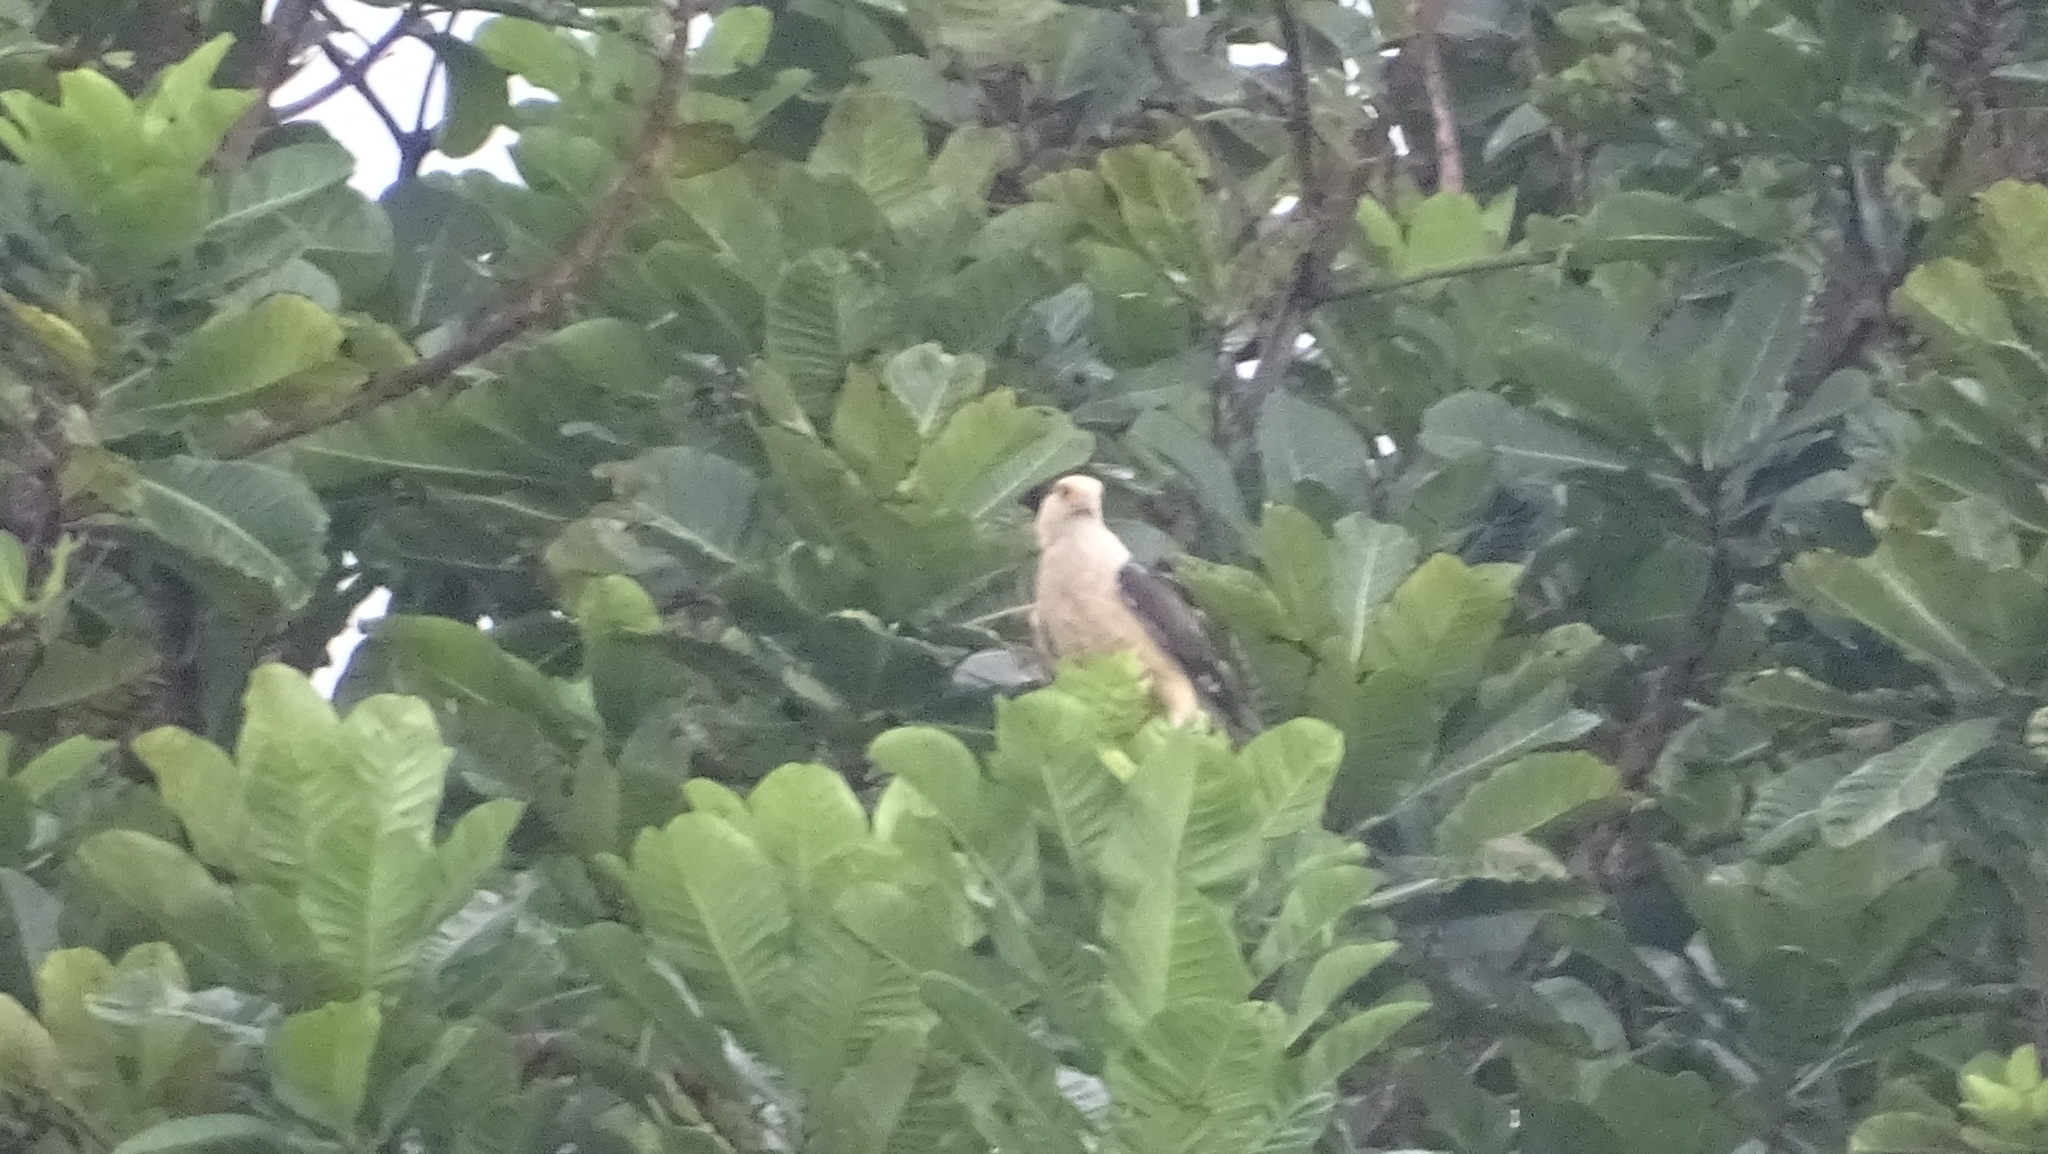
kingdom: Animalia
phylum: Chordata
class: Aves
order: Falconiformes
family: Falconidae
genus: Daptrius
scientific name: Daptrius
